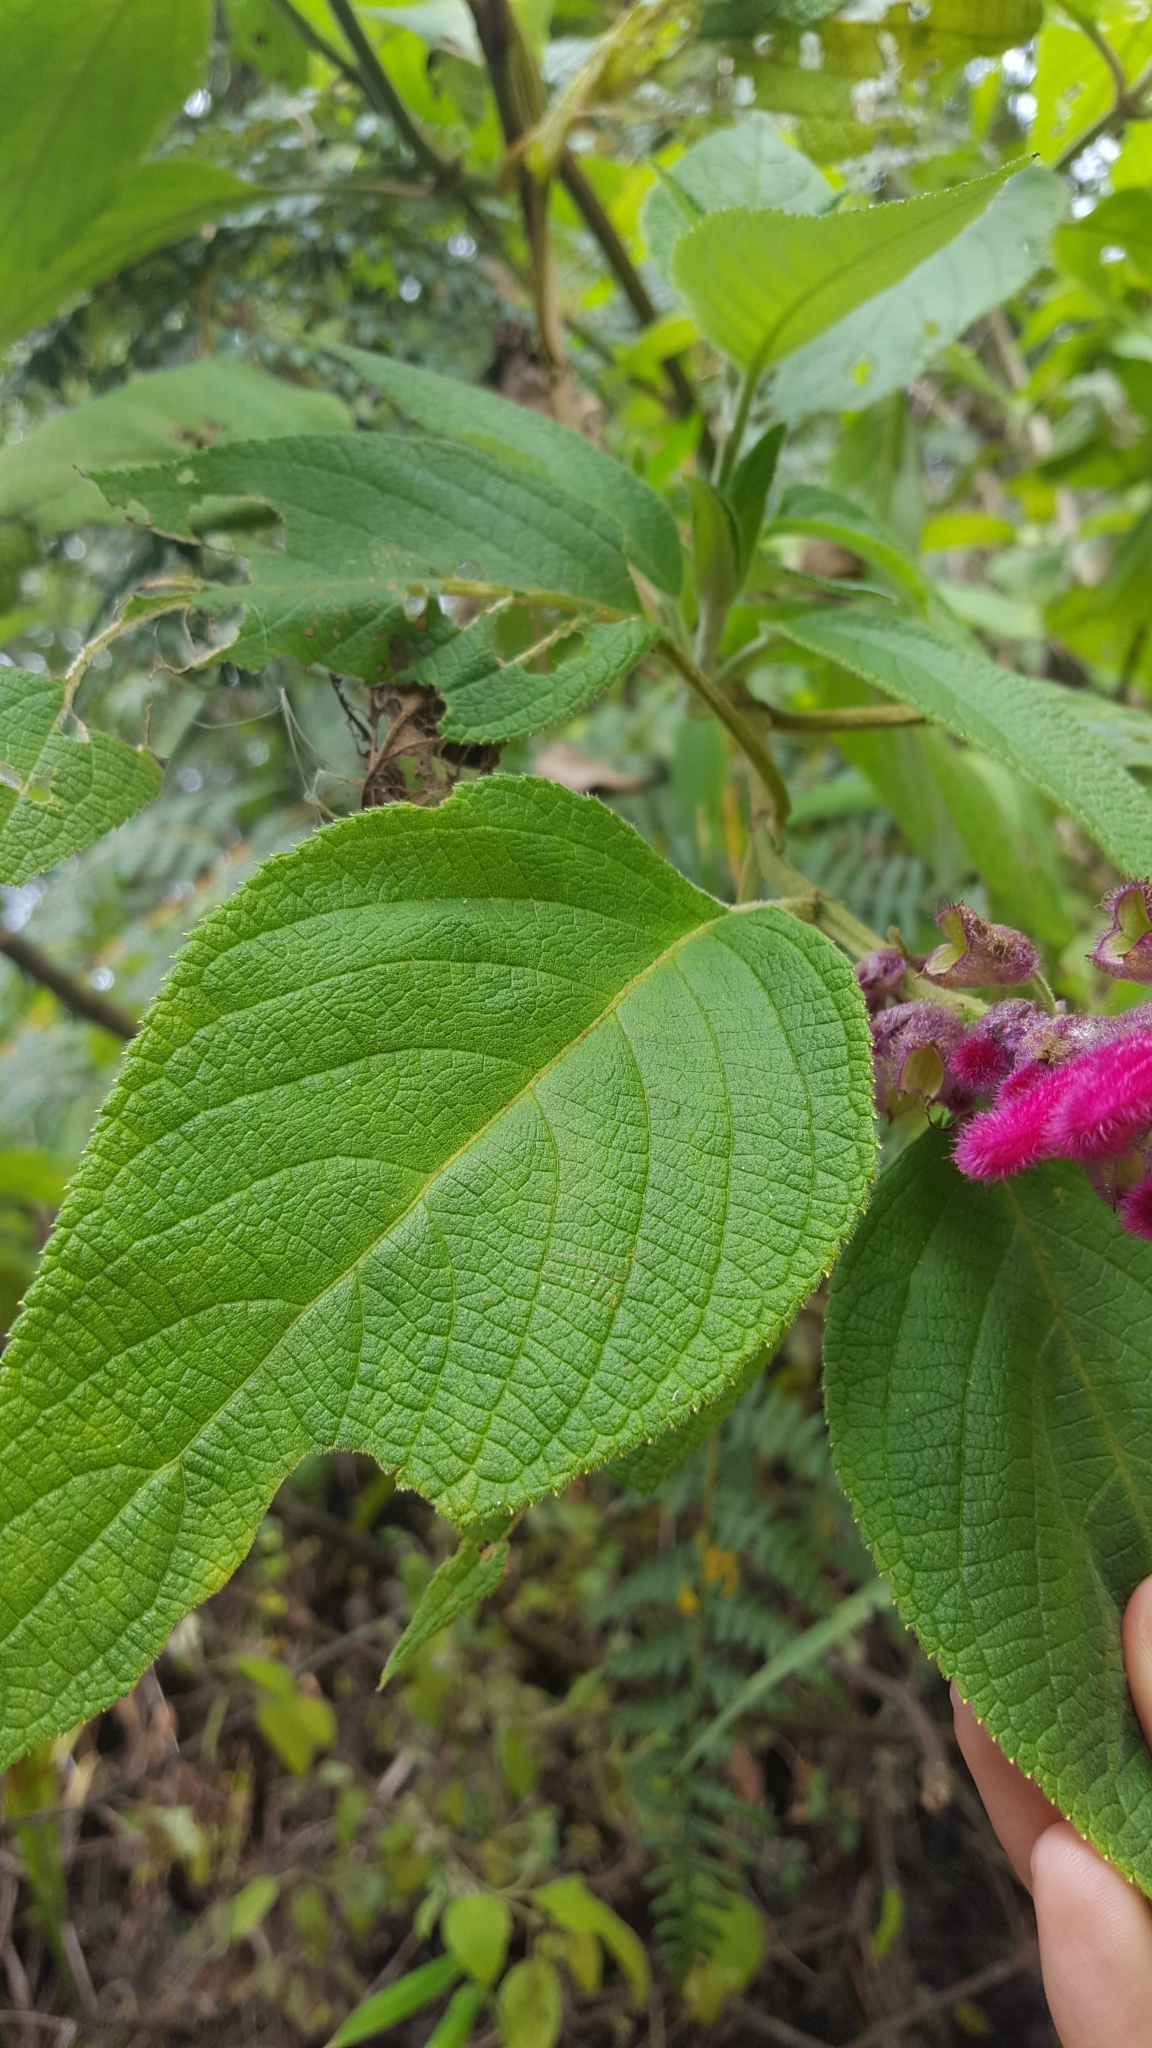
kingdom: Plantae
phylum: Tracheophyta
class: Magnoliopsida
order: Lamiales
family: Lamiaceae
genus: Salvia
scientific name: Salvia tortuosa
